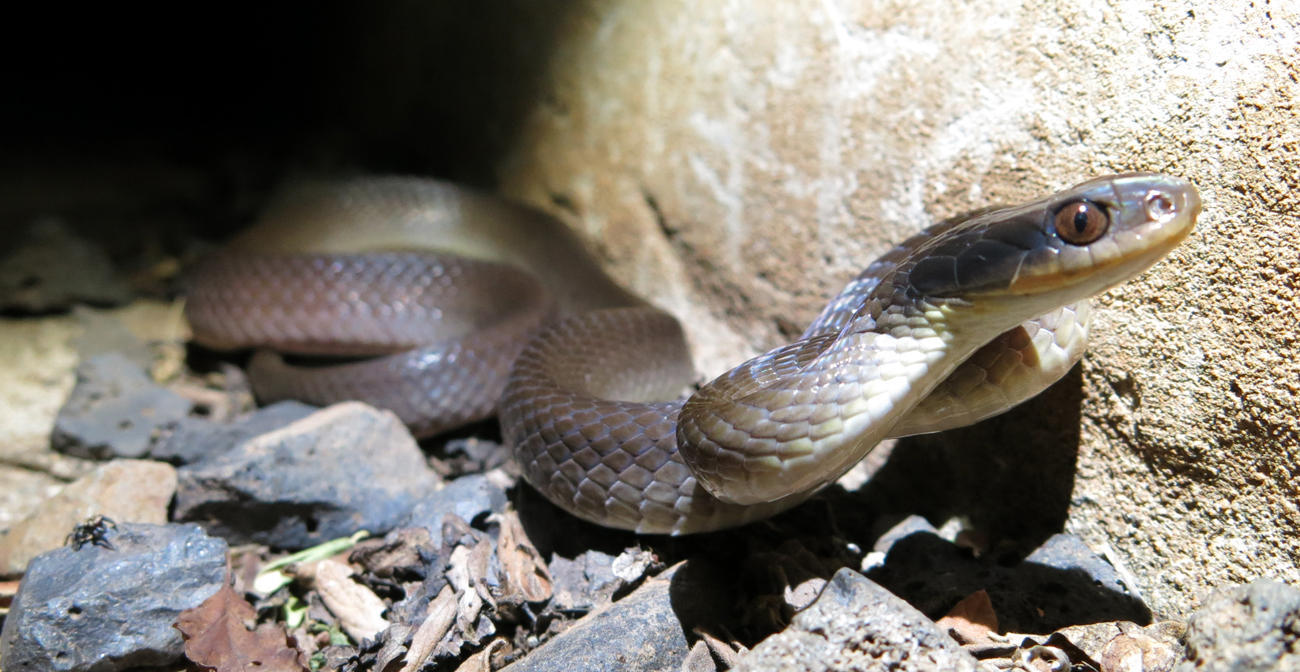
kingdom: Animalia
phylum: Chordata
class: Squamata
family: Colubridae
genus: Crotaphopeltis
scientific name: Crotaphopeltis hotamboeia
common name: Red-lipped snake
